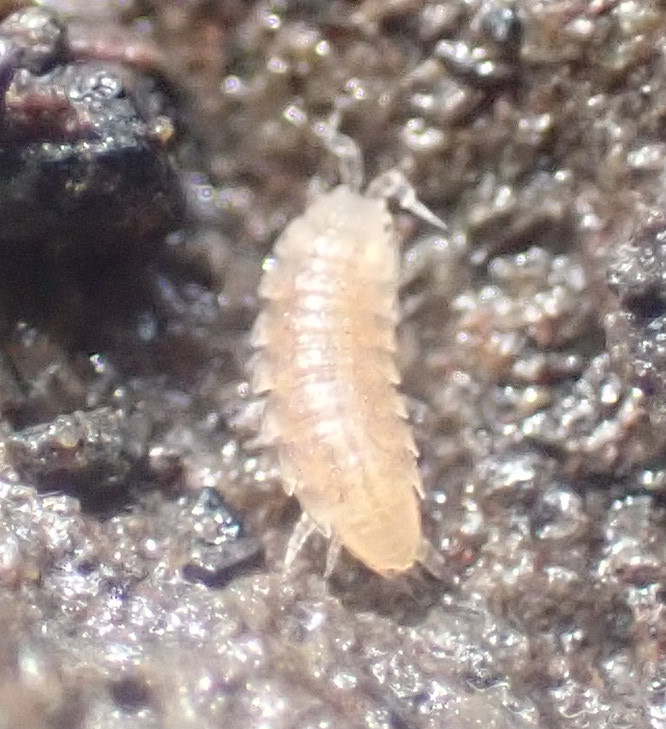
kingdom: Animalia
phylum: Arthropoda
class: Malacostraca
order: Isopoda
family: Trichoniscidae
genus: Trichoniscus
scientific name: Trichoniscus pygmaeus
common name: Isopod
